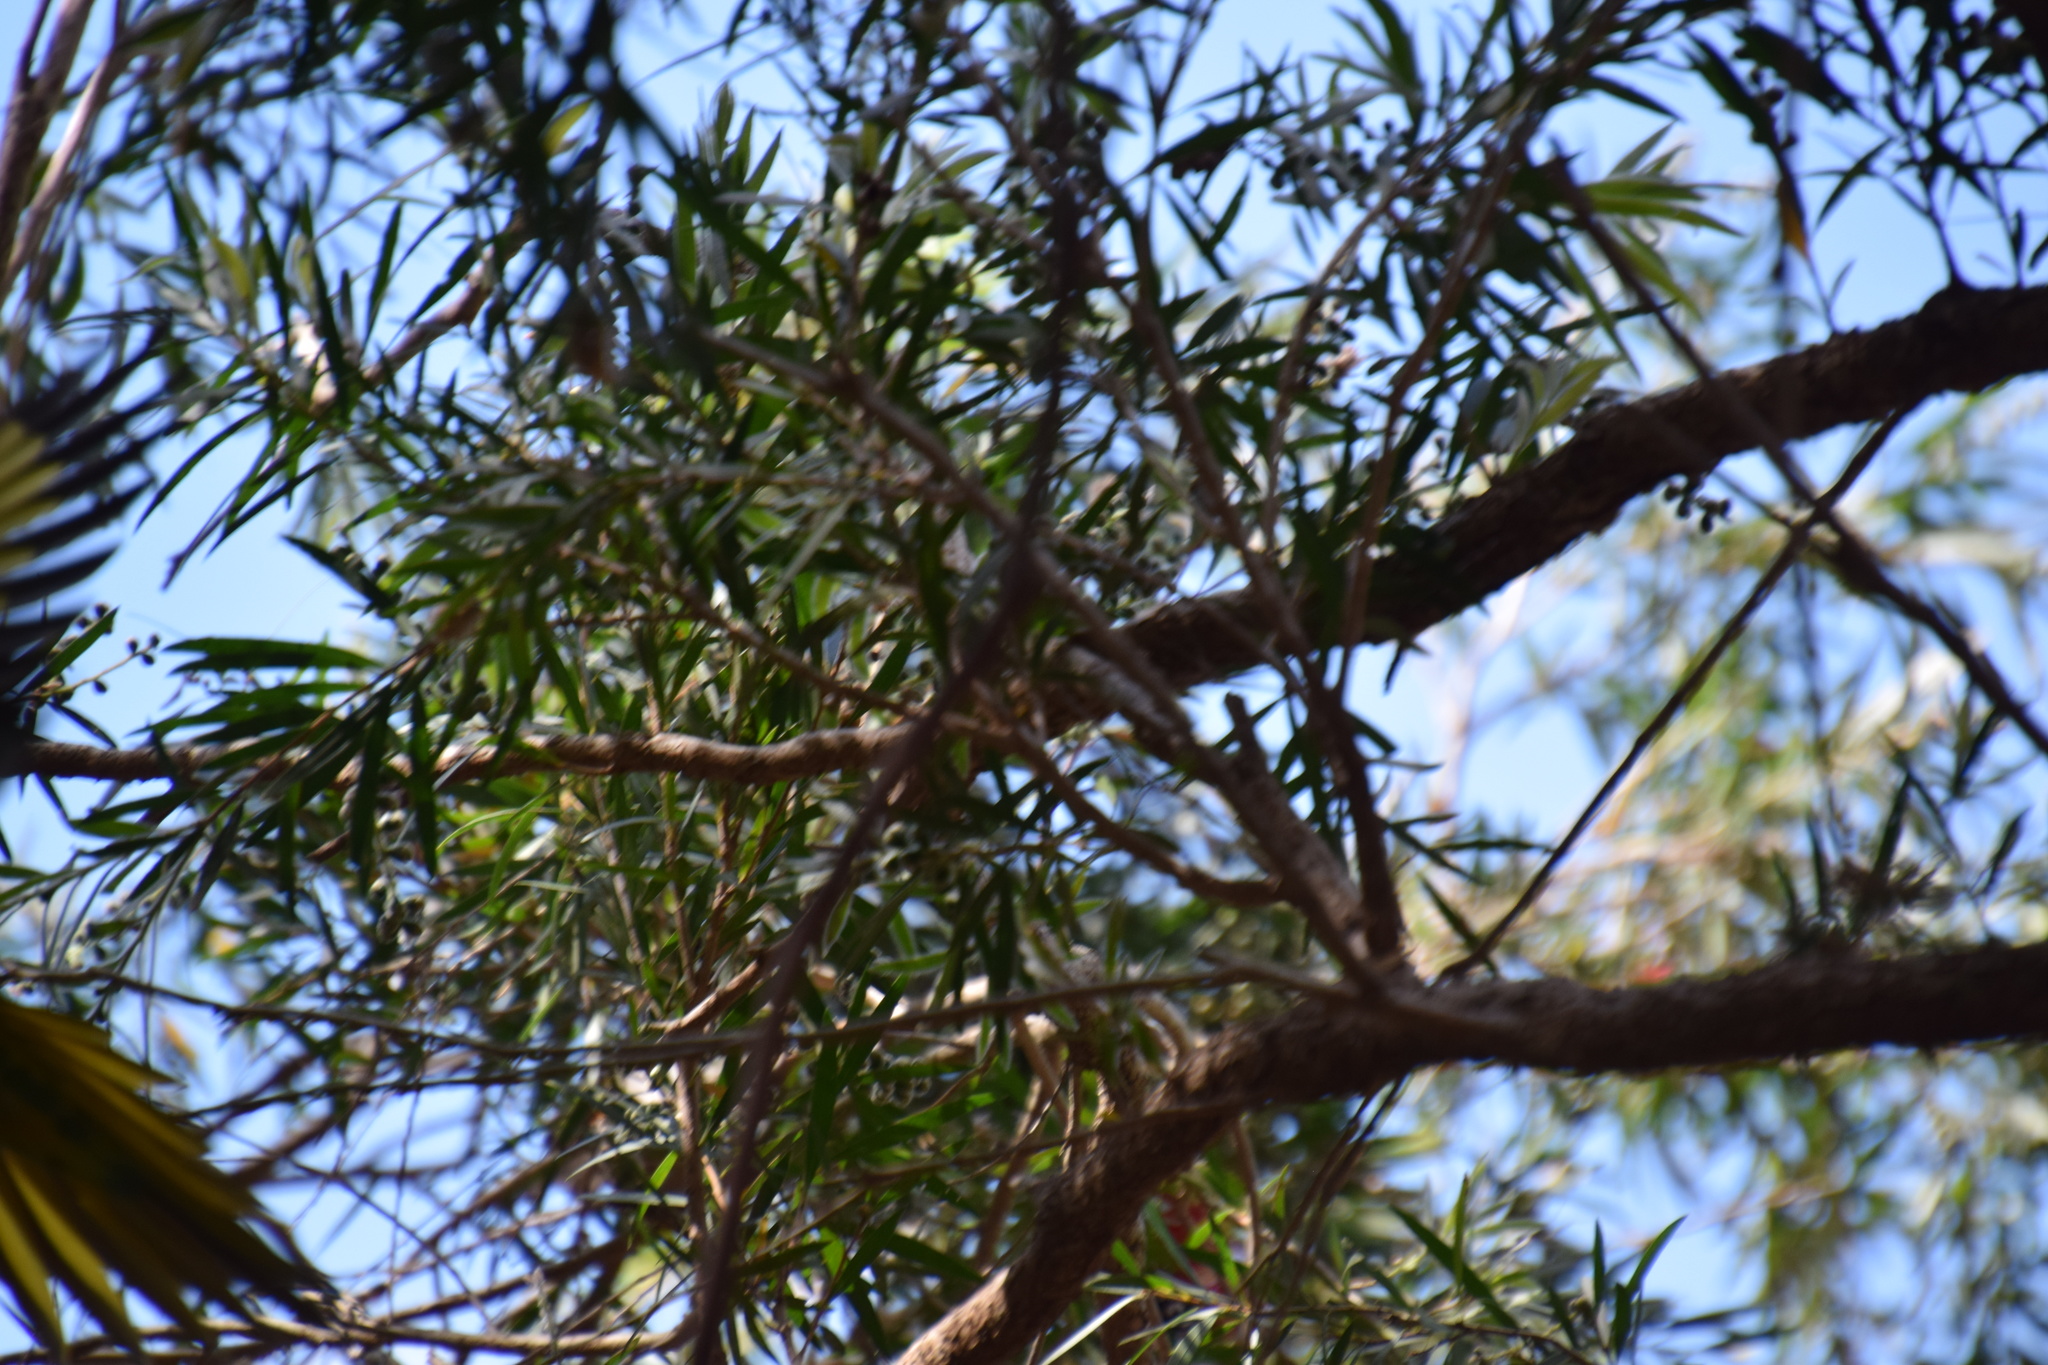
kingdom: Animalia
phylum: Chordata
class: Aves
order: Psittaciformes
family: Psittacidae
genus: Trichoglossus
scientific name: Trichoglossus haematodus
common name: Coconut lorikeet
